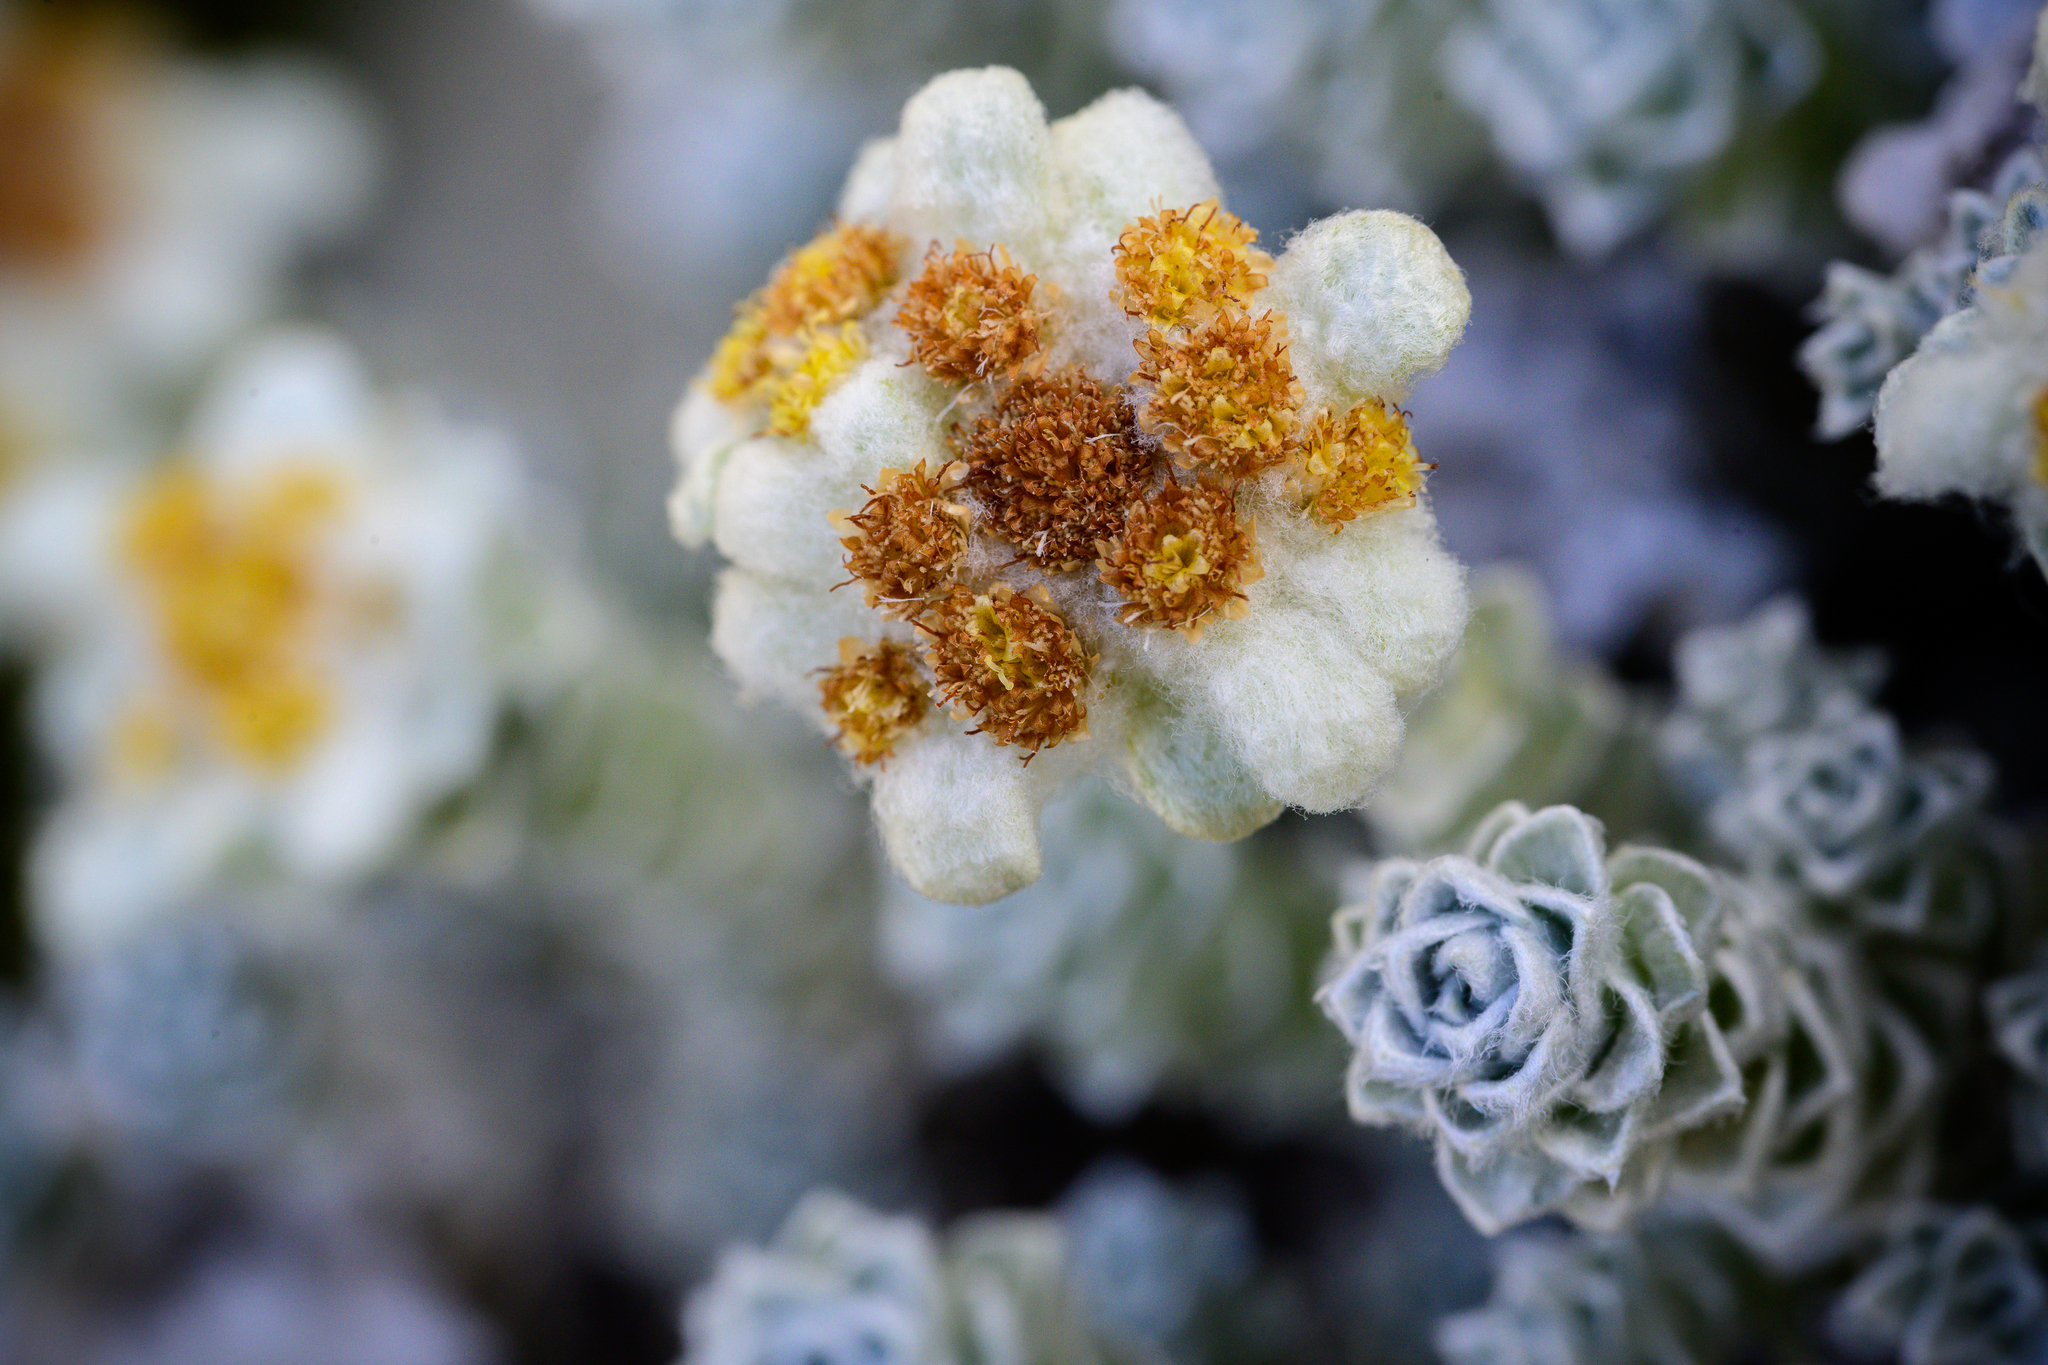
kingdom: Plantae
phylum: Tracheophyta
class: Magnoliopsida
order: Asterales
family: Asteraceae
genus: Leucogenes
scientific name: Leucogenes grandiceps
